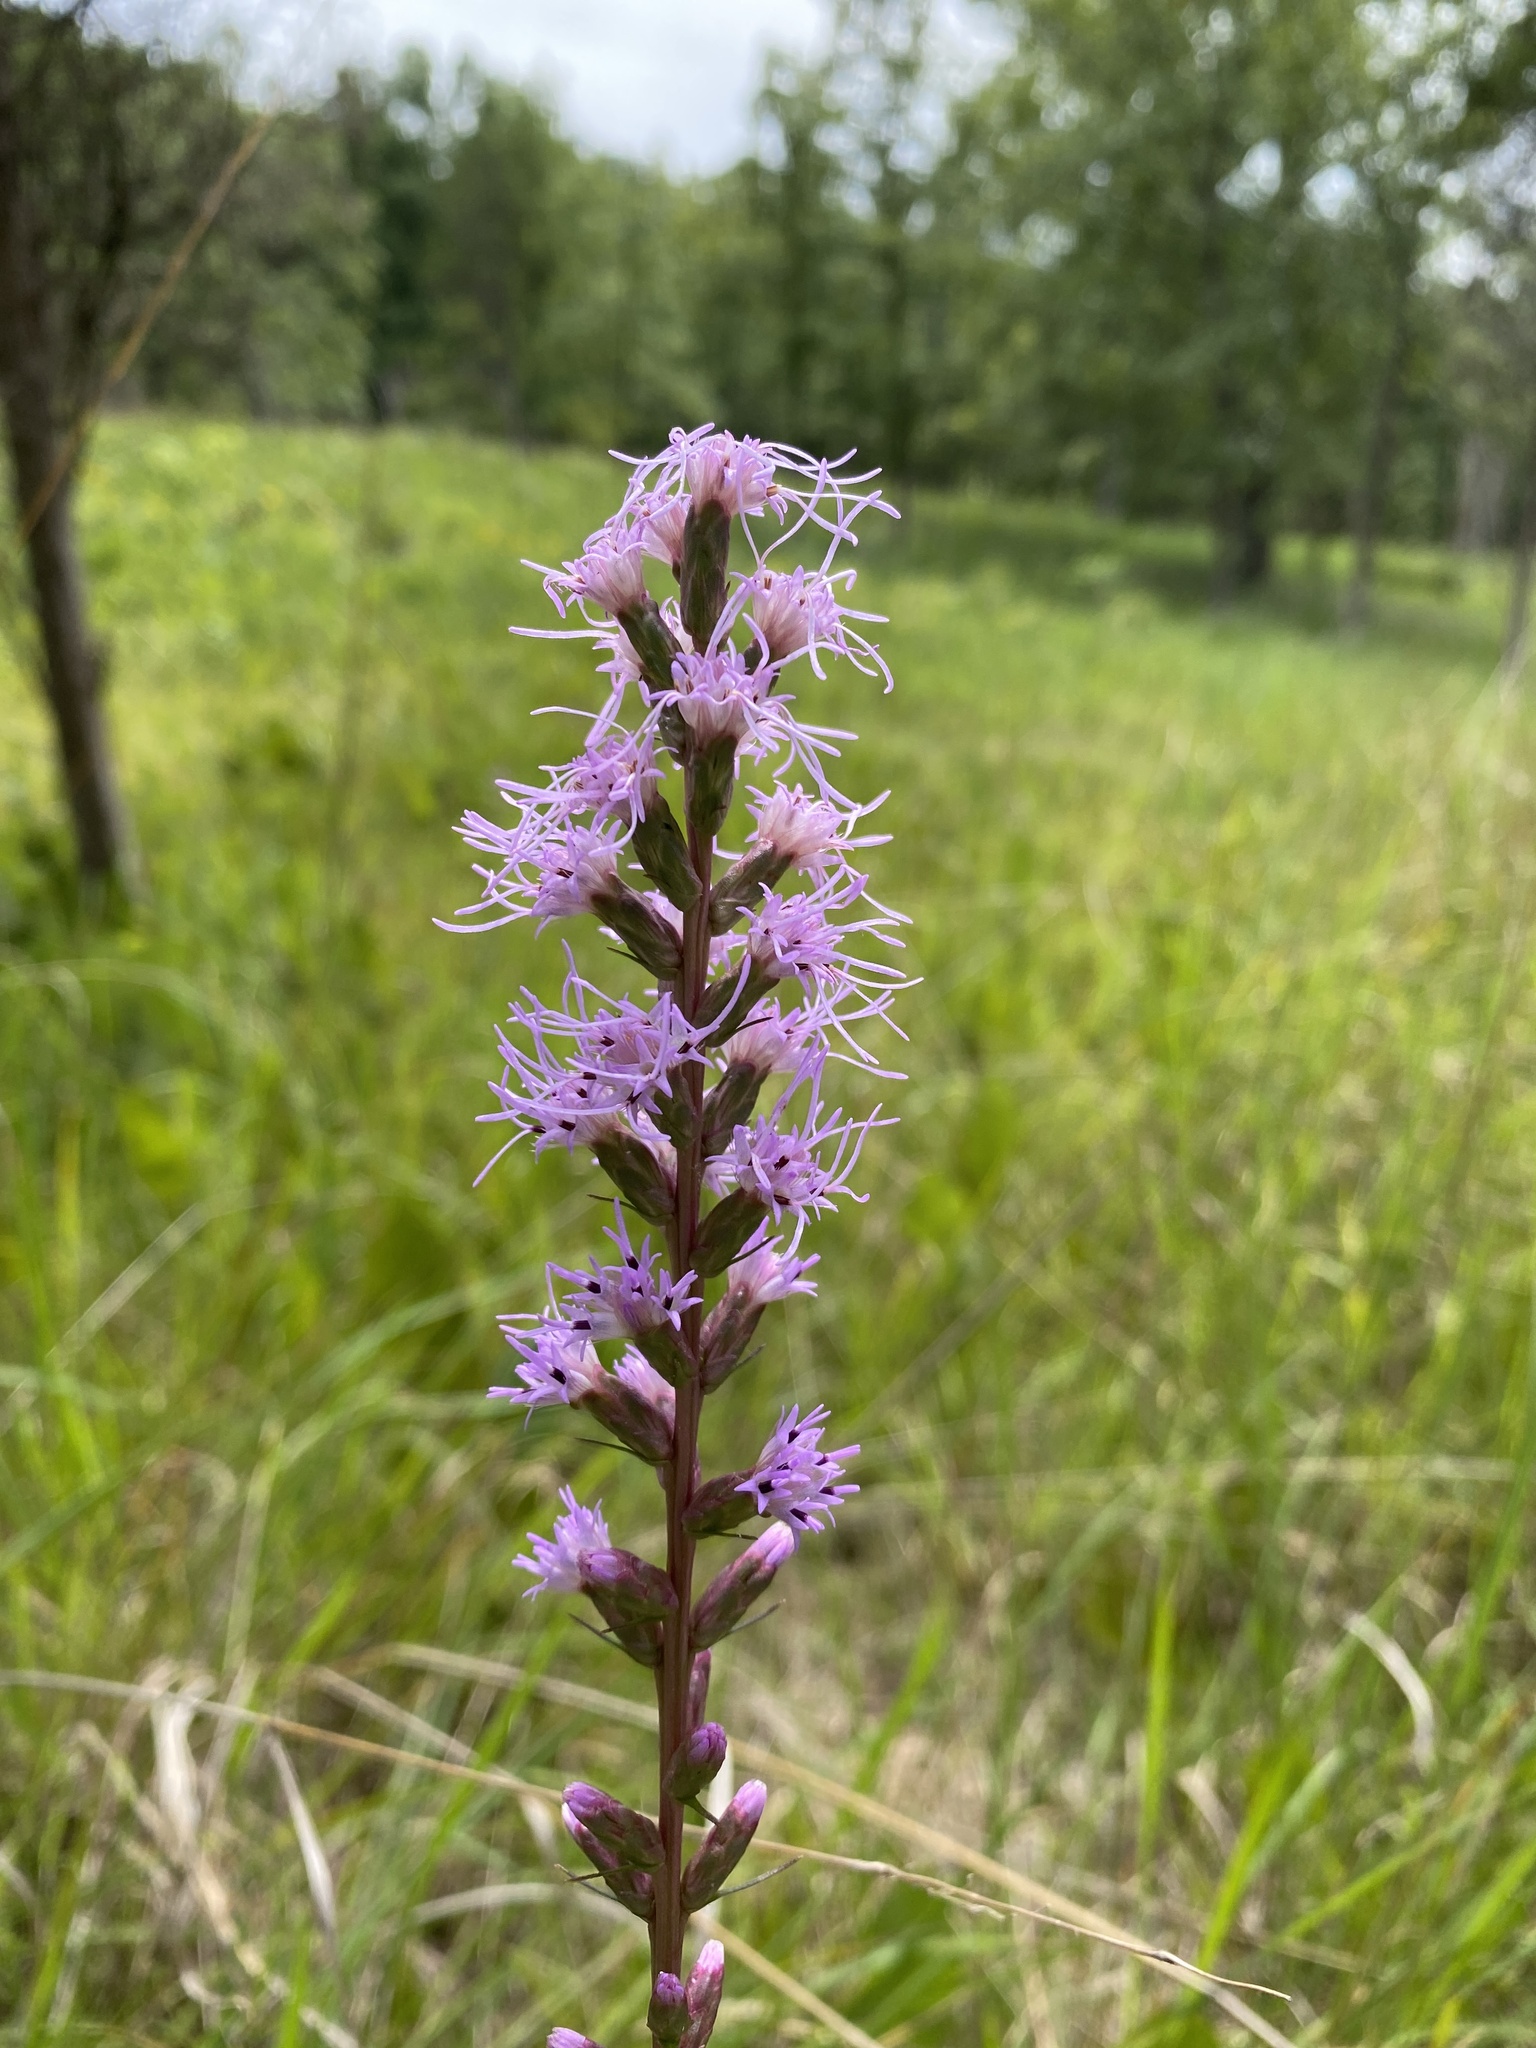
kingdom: Plantae
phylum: Tracheophyta
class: Magnoliopsida
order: Asterales
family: Asteraceae
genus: Liatris
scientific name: Liatris spicata
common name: Florist gayfeather
